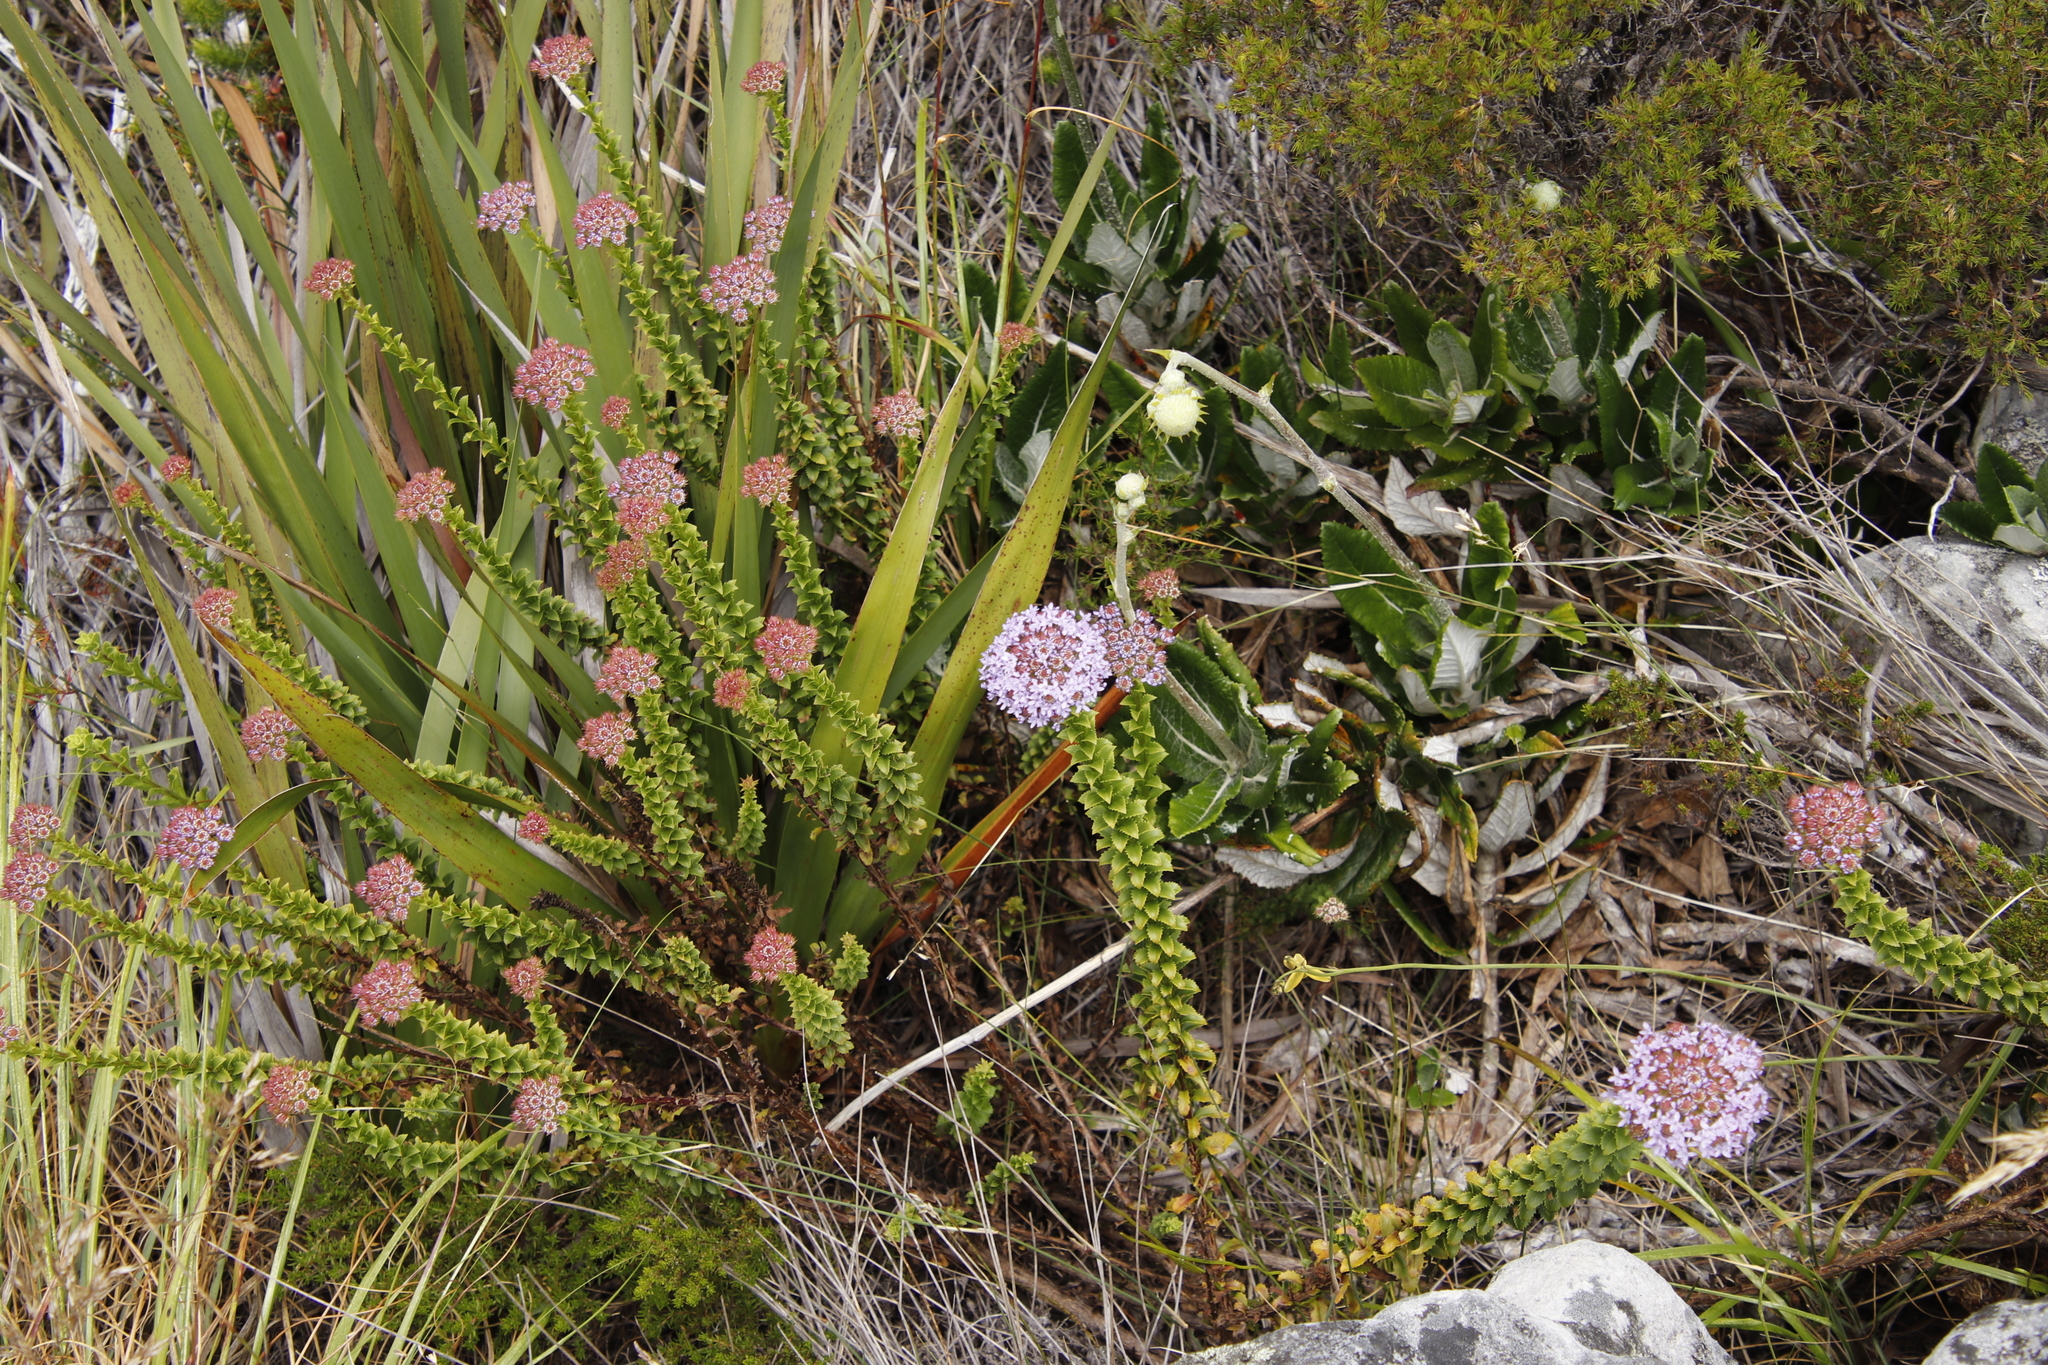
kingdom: Plantae
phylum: Tracheophyta
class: Magnoliopsida
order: Lamiales
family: Scrophulariaceae
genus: Pseudoselago
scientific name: Pseudoselago serrata
